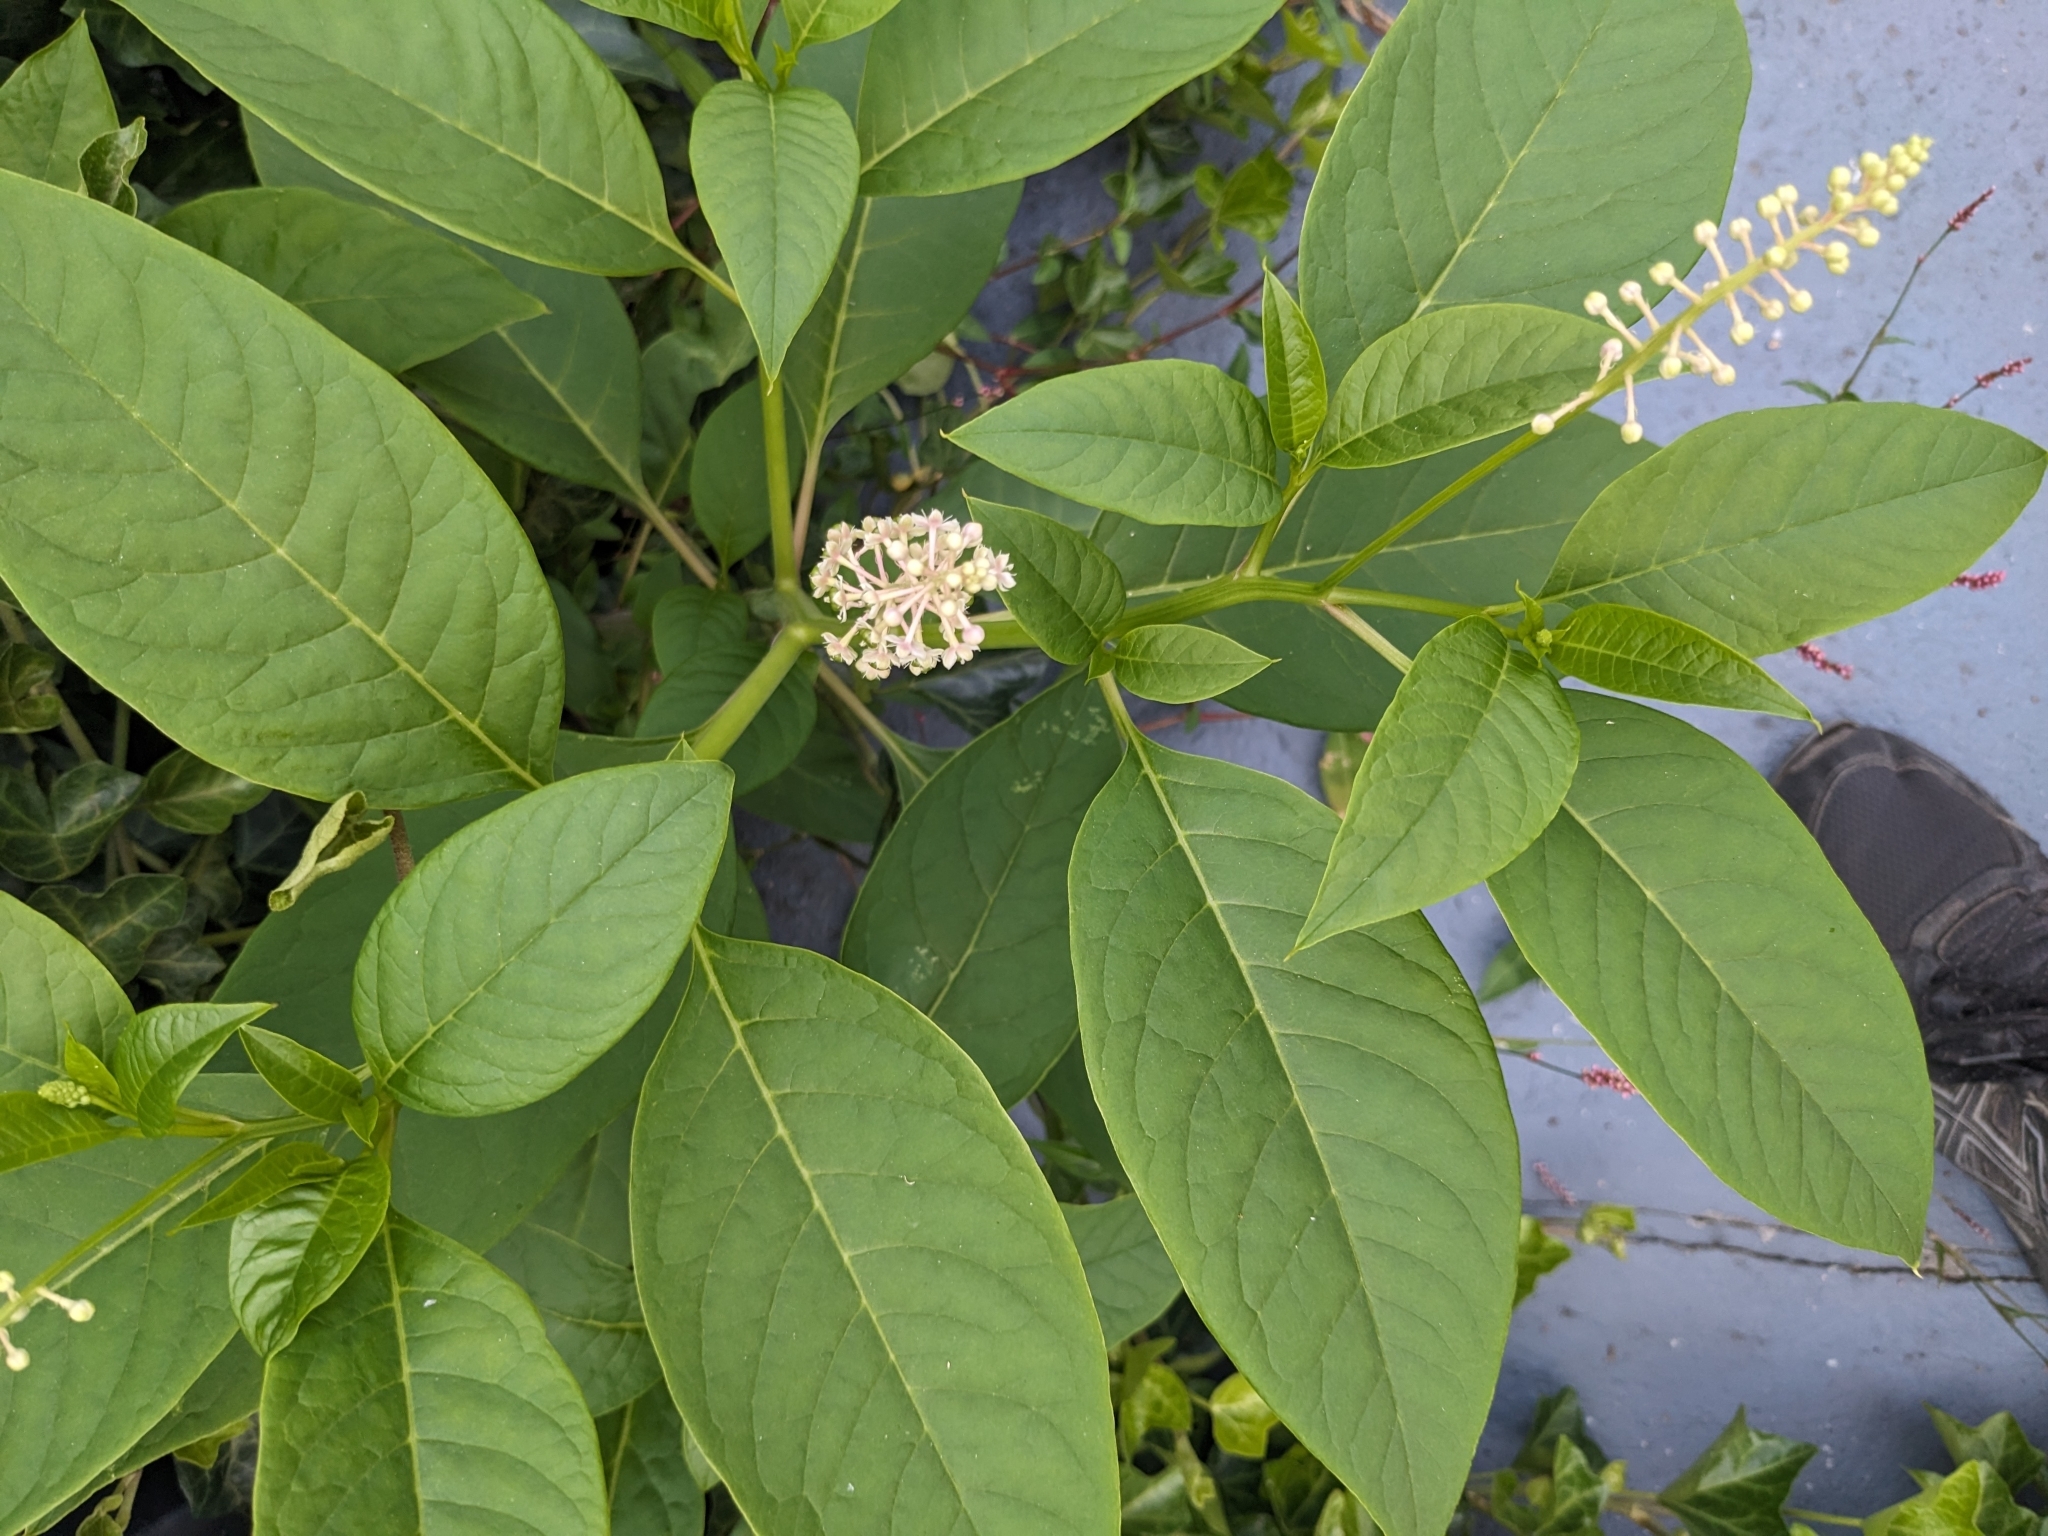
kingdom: Plantae
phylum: Tracheophyta
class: Magnoliopsida
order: Caryophyllales
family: Phytolaccaceae
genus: Phytolacca
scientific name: Phytolacca americana
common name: American pokeweed
